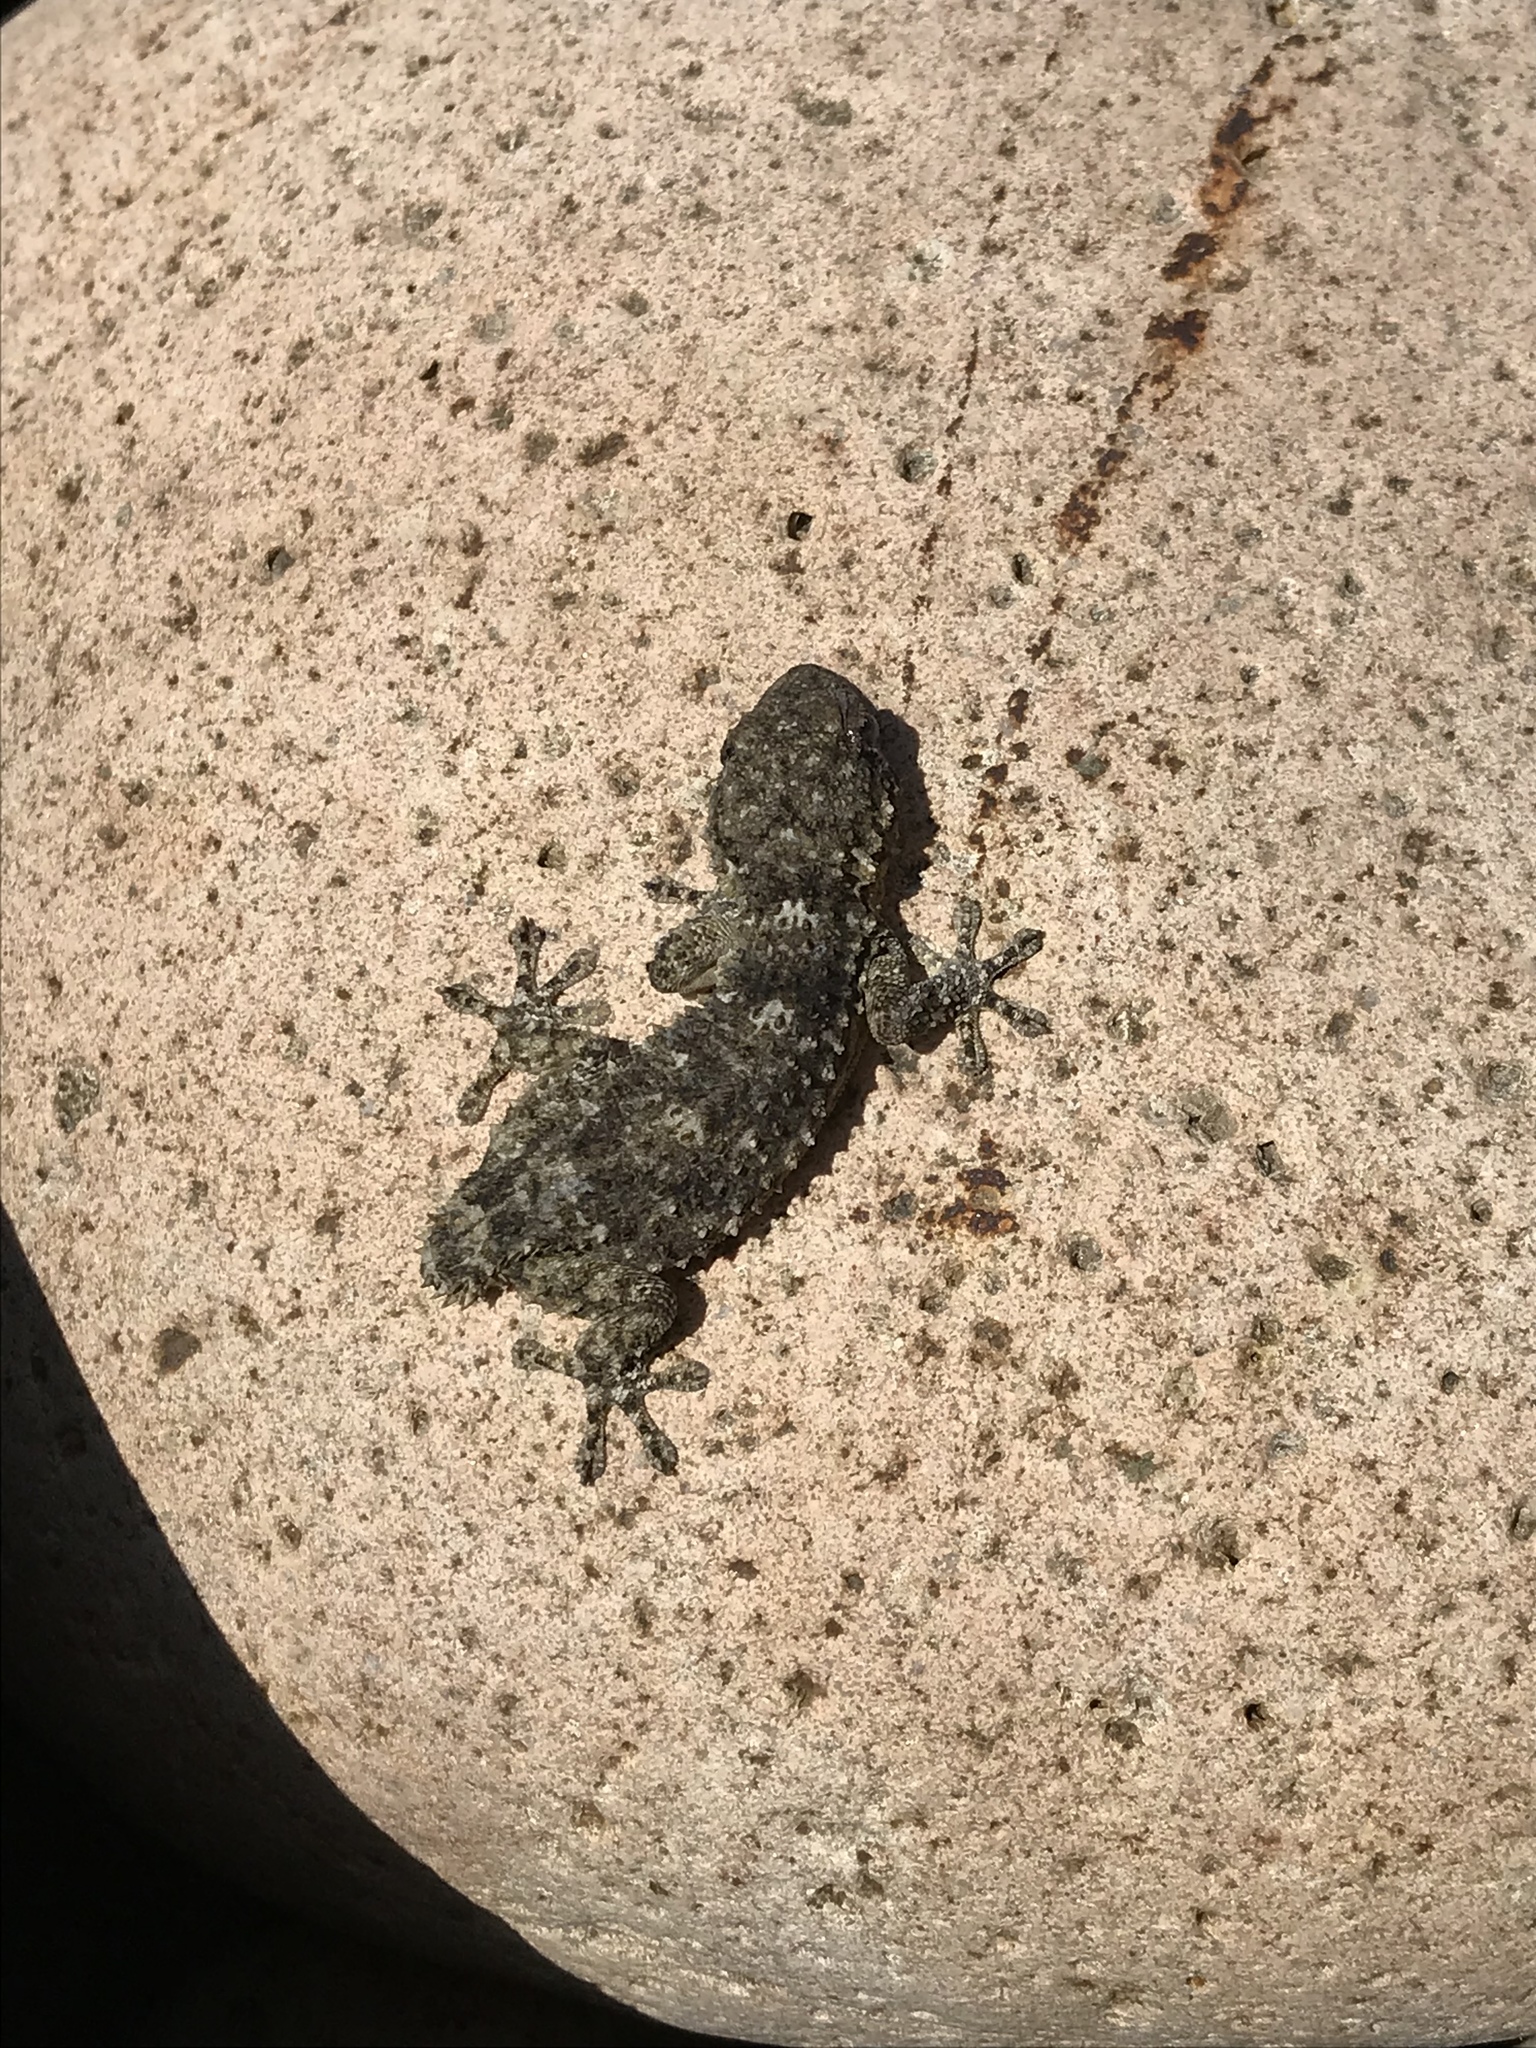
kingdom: Animalia
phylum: Chordata
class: Squamata
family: Phyllodactylidae
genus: Tarentola
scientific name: Tarentola mauritanica
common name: Moorish gecko
